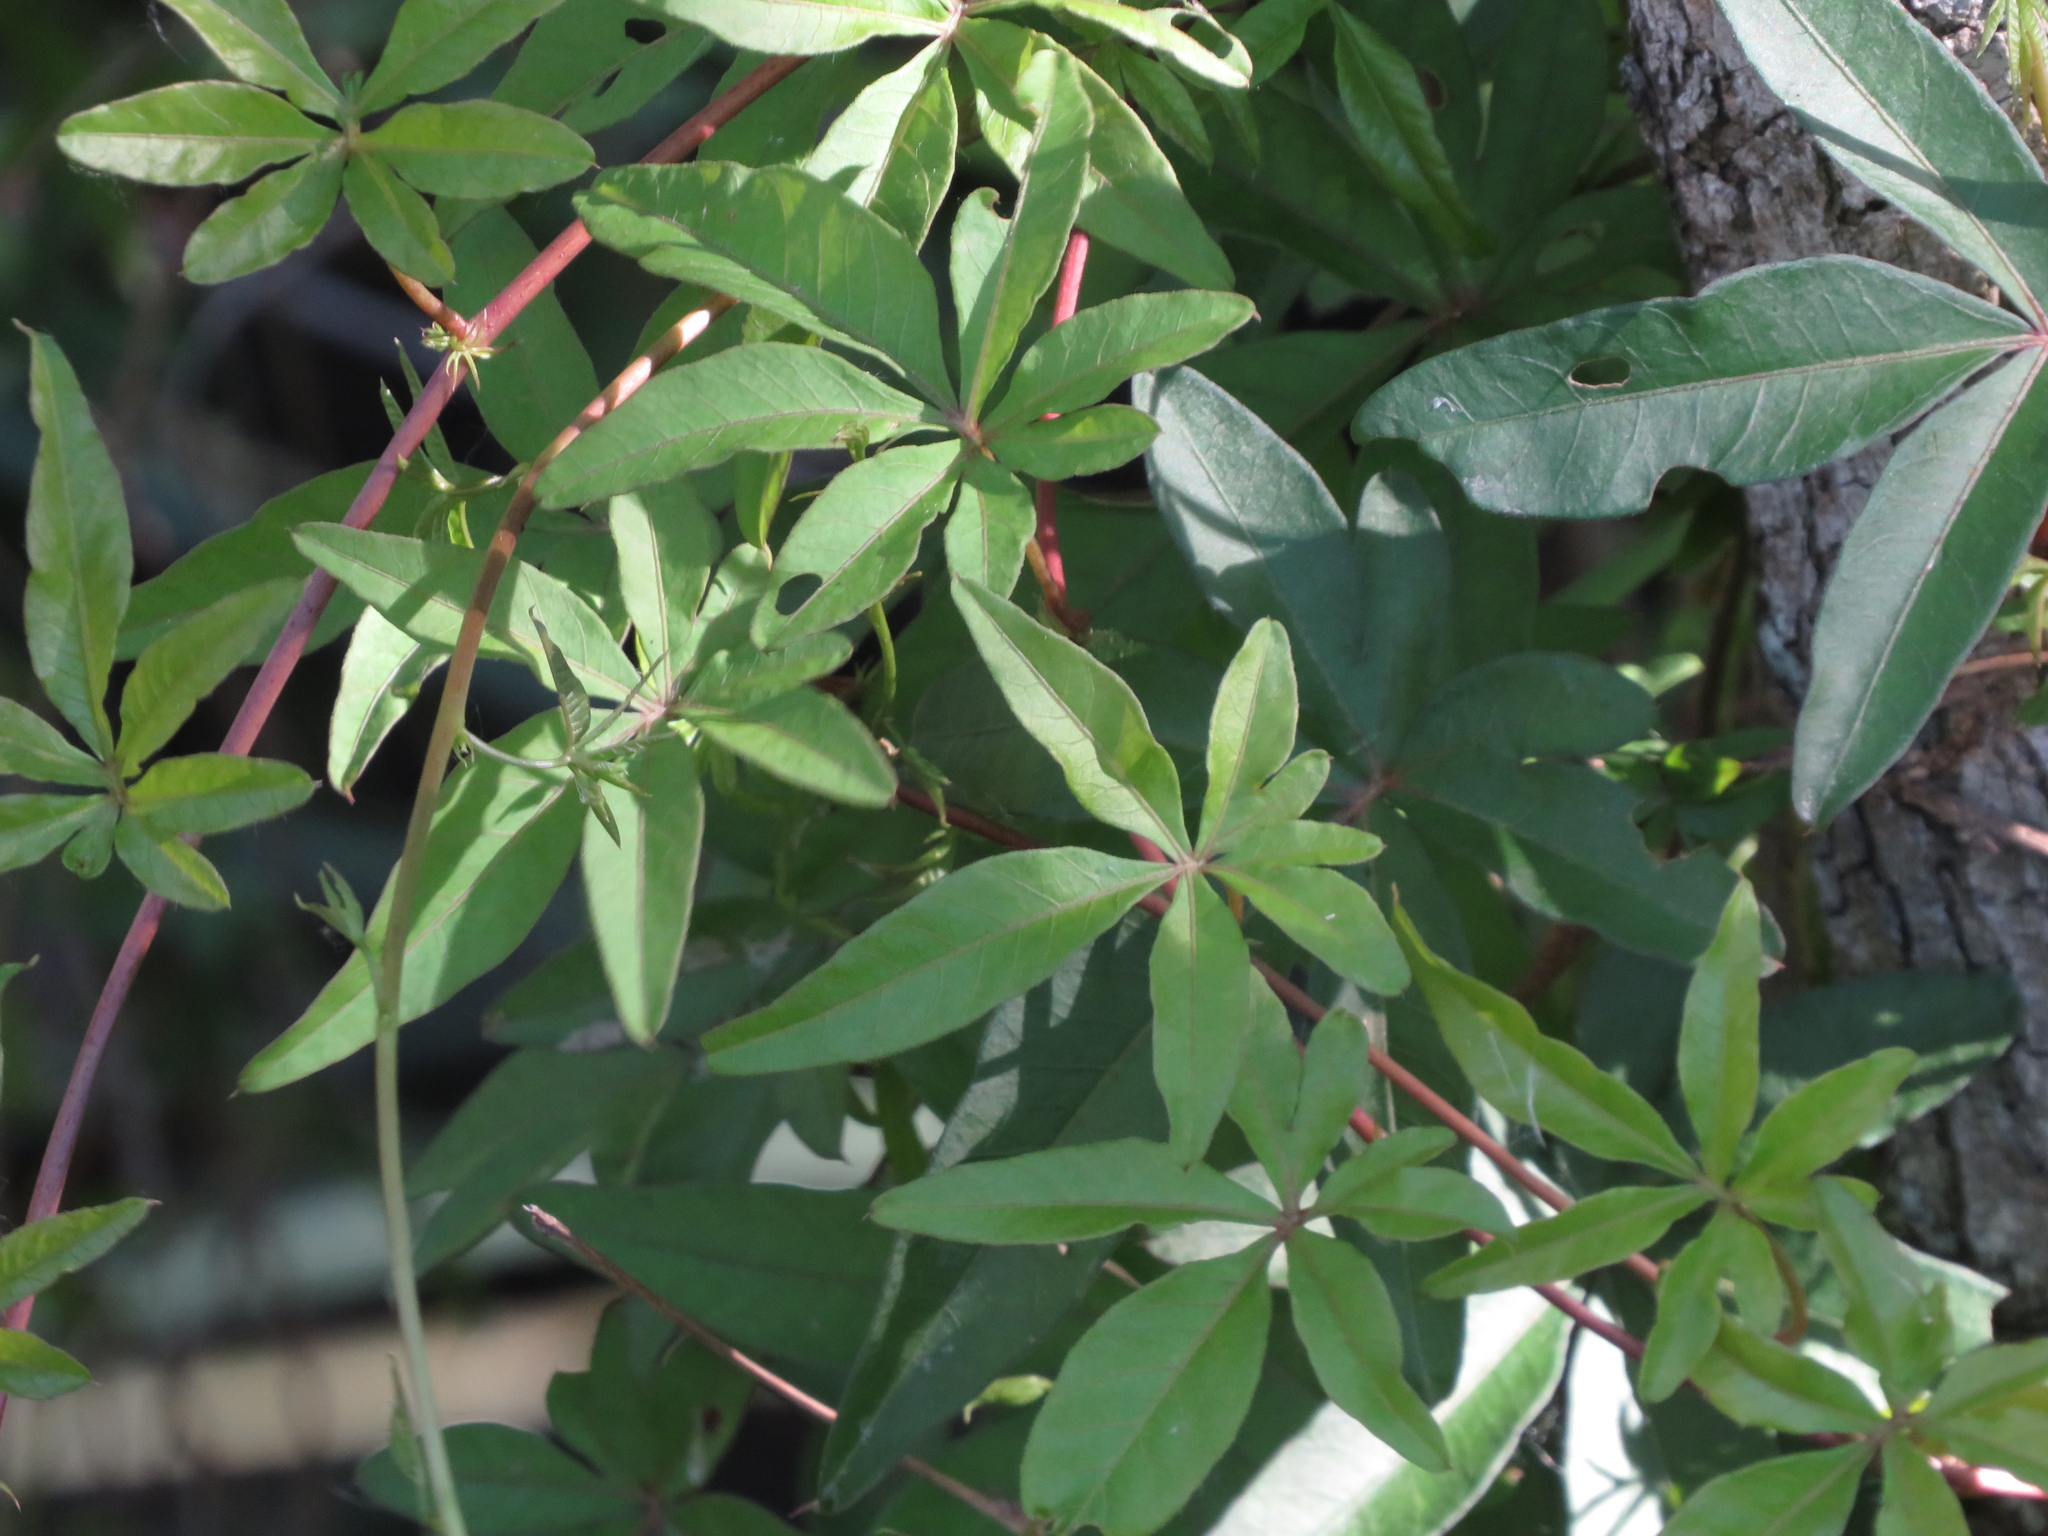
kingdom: Plantae
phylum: Tracheophyta
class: Magnoliopsida
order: Solanales
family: Convolvulaceae
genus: Ipomoea
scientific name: Ipomoea cairica
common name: Mile a minute vine
